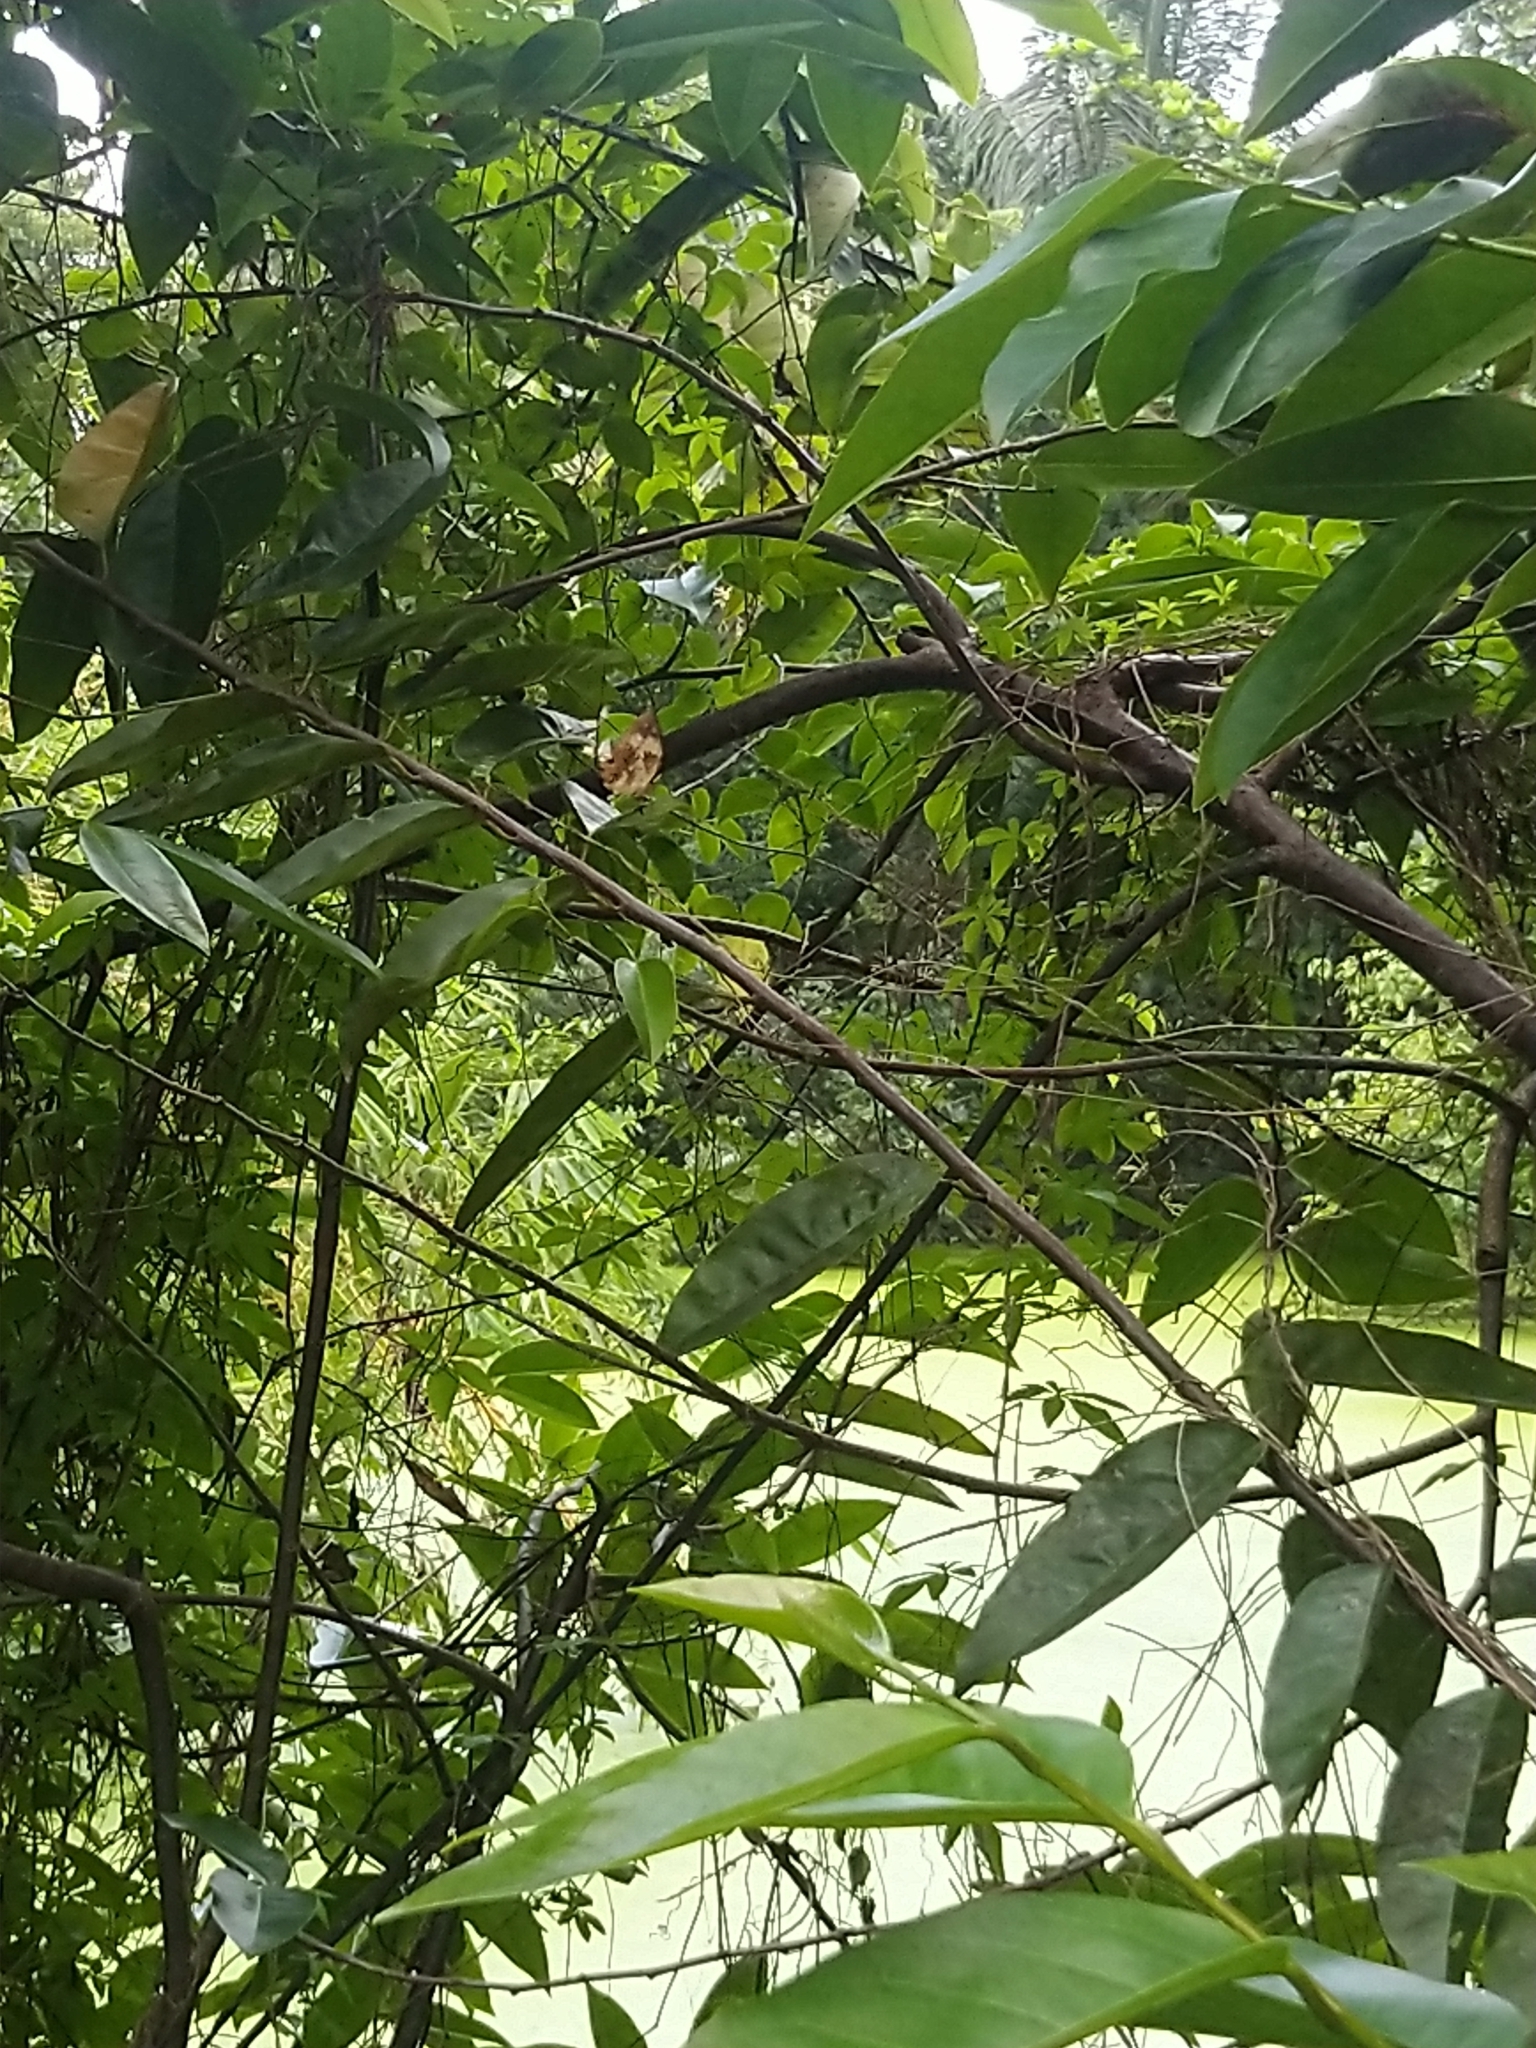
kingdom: Animalia
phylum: Arthropoda
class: Insecta
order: Lepidoptera
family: Nymphalidae
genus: Cupha
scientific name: Cupha erymanthis
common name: Rustic
